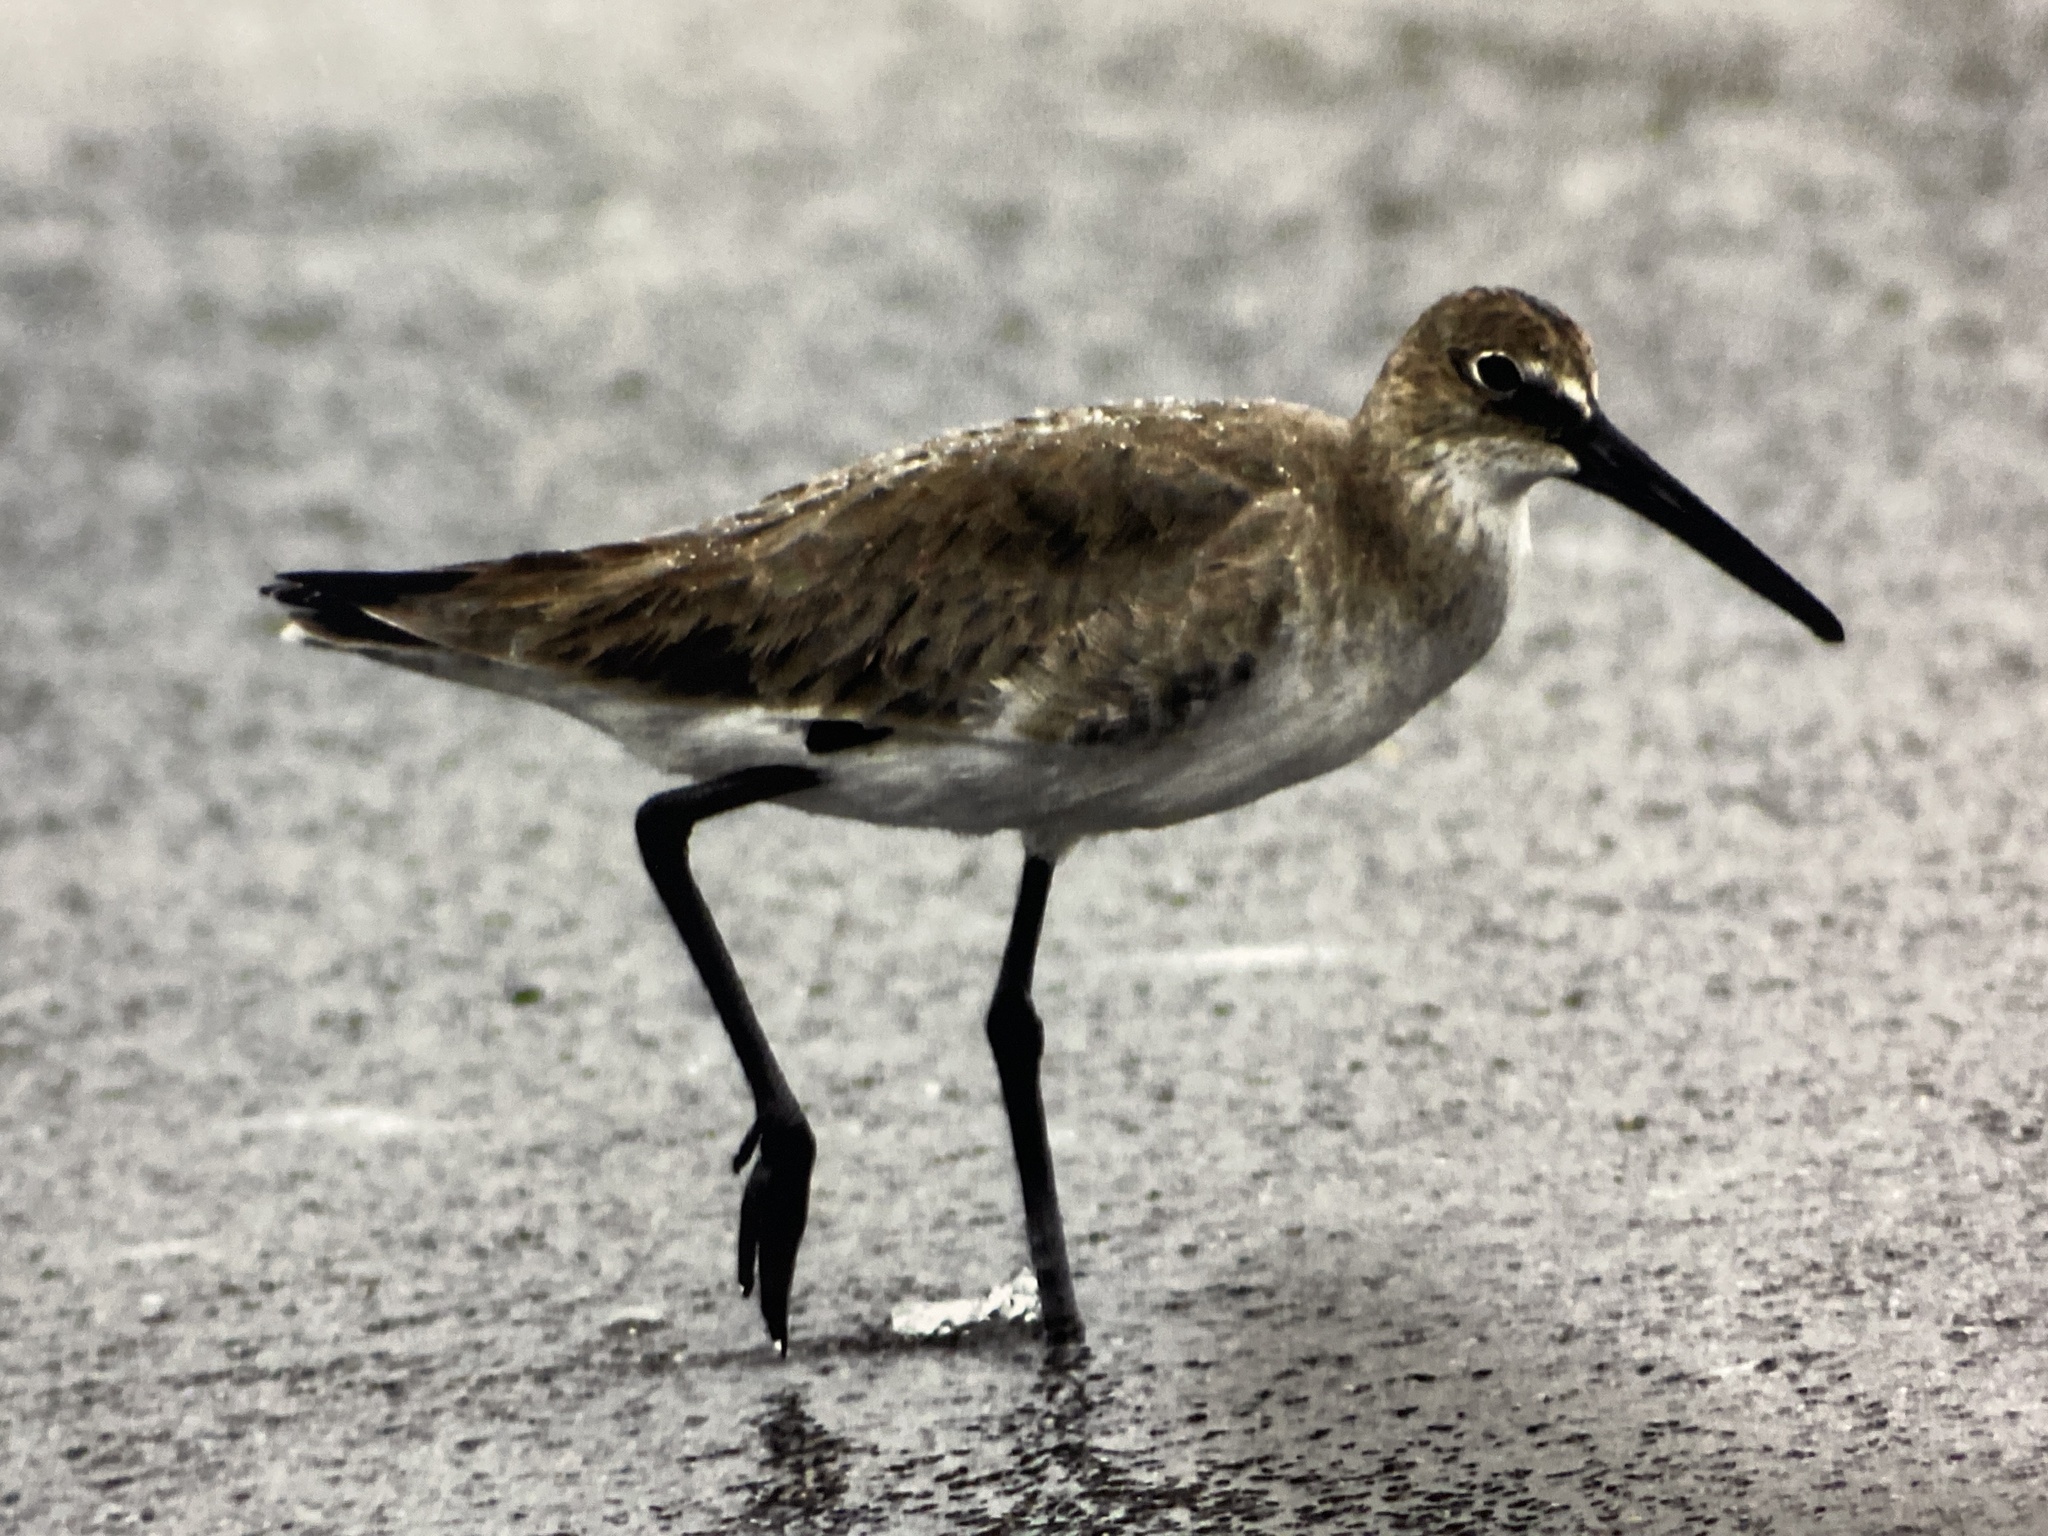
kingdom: Animalia
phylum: Chordata
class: Aves
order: Charadriiformes
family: Scolopacidae
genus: Tringa
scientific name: Tringa semipalmata
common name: Willet
